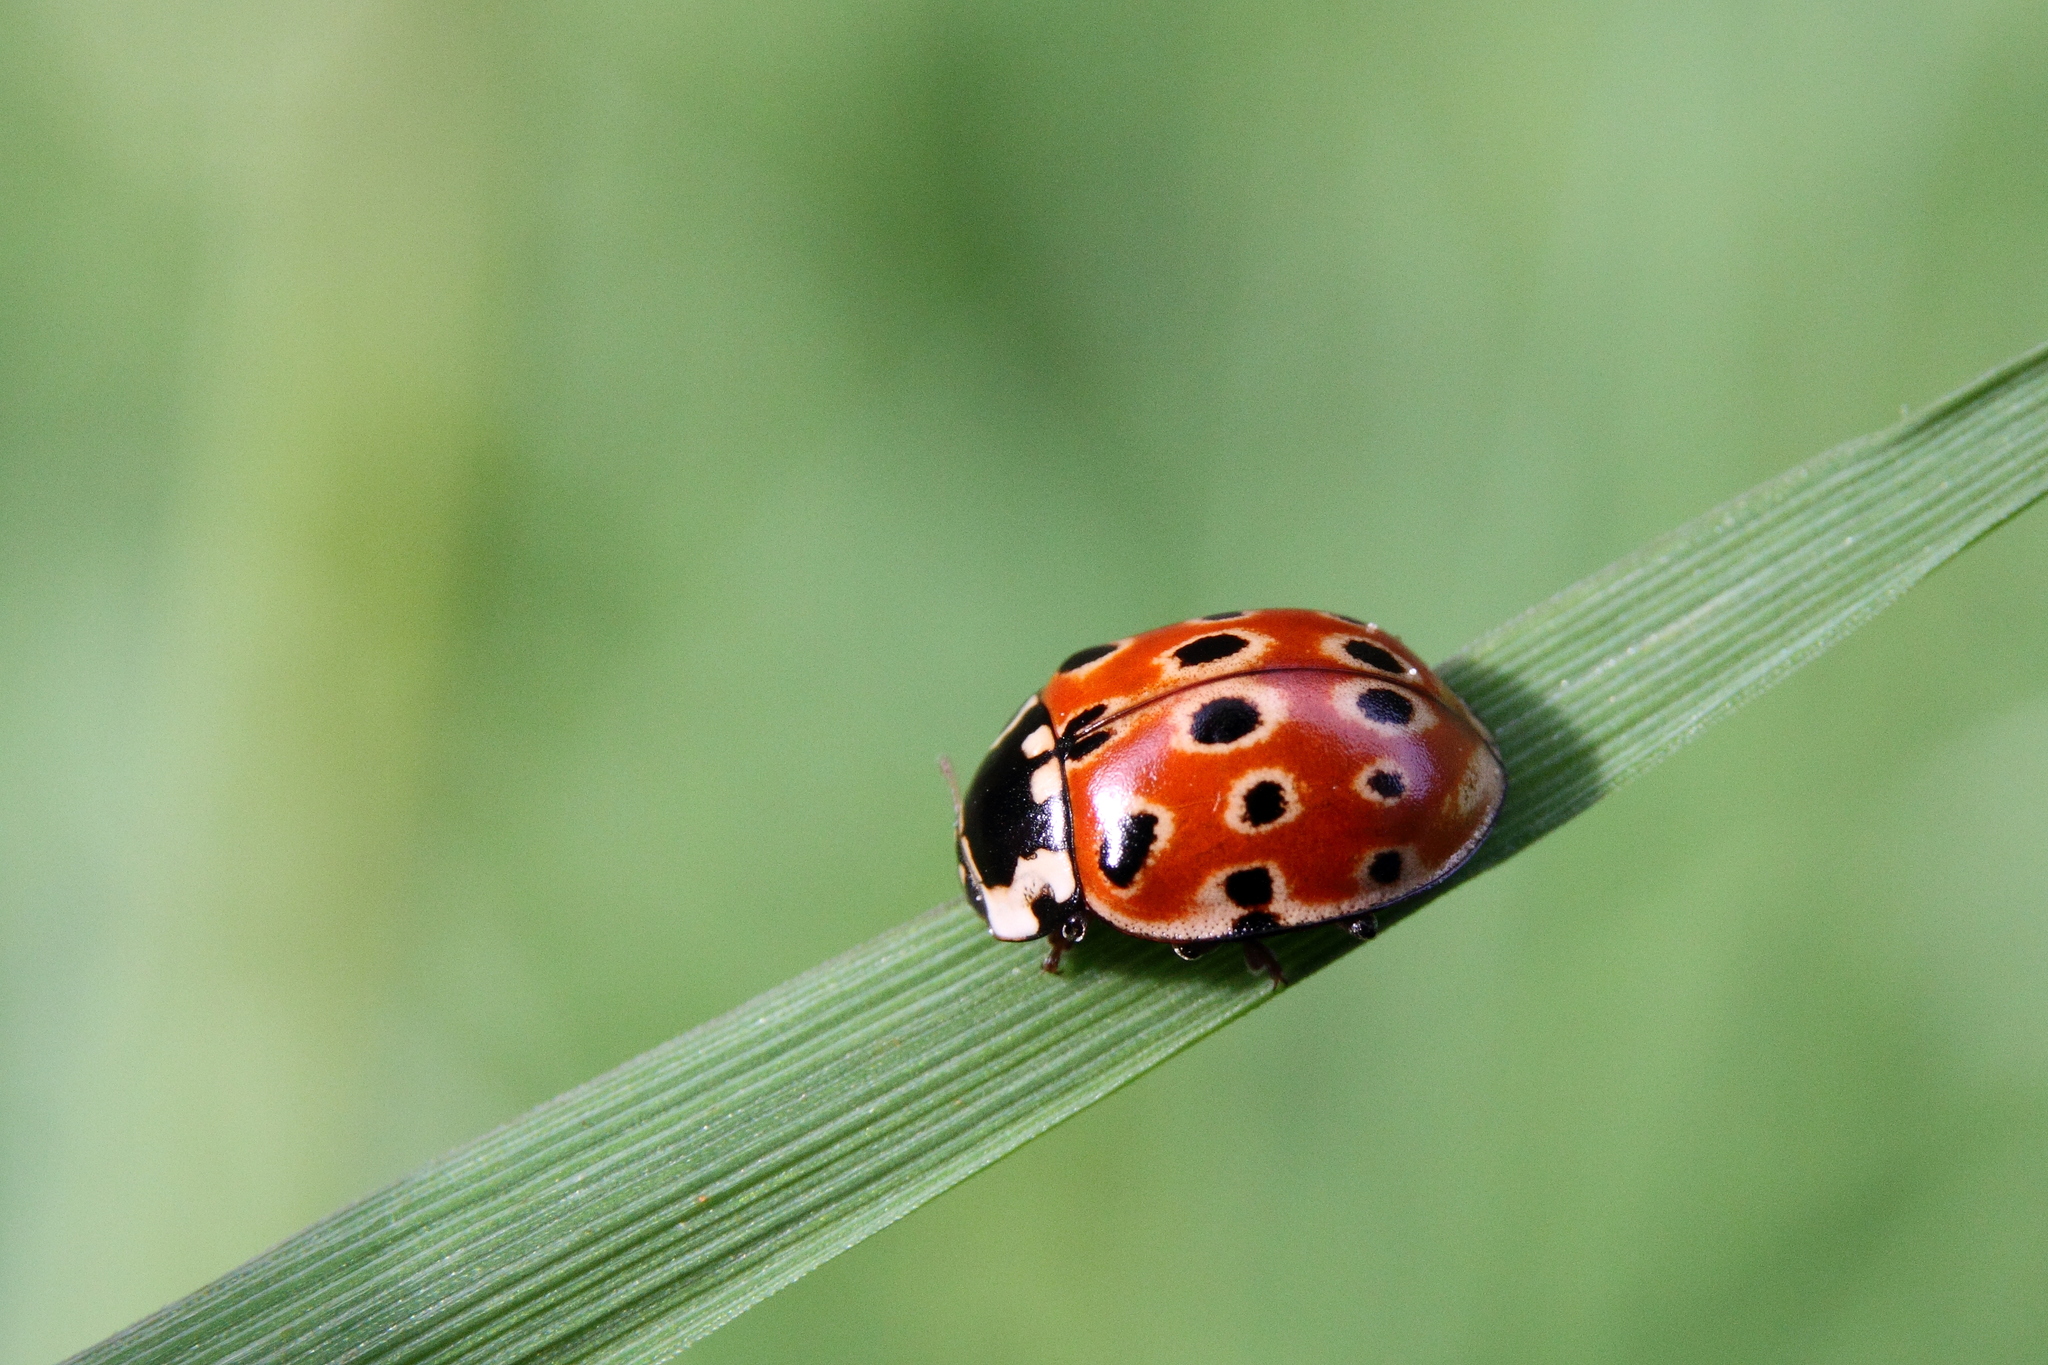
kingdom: Animalia
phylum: Arthropoda
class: Insecta
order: Coleoptera
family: Coccinellidae
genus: Anatis
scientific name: Anatis ocellata
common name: Eyed ladybird
